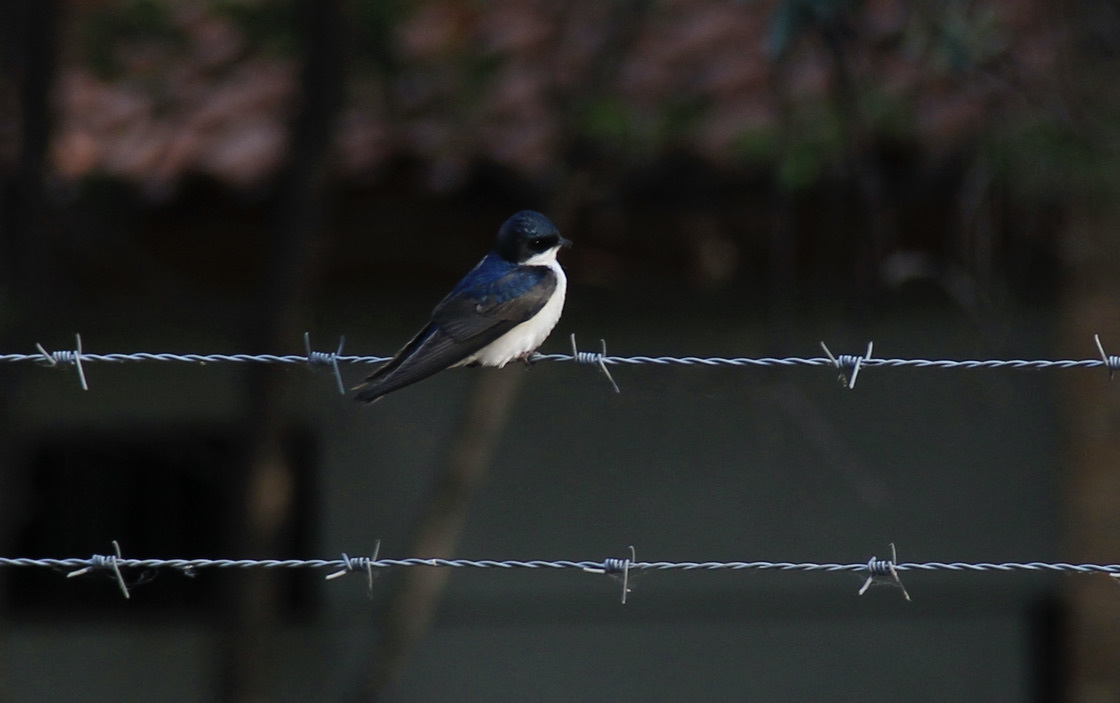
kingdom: Animalia
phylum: Chordata
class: Aves
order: Passeriformes
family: Hirundinidae
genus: Notiochelidon
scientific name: Notiochelidon cyanoleuca
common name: Blue-and-white swallow
